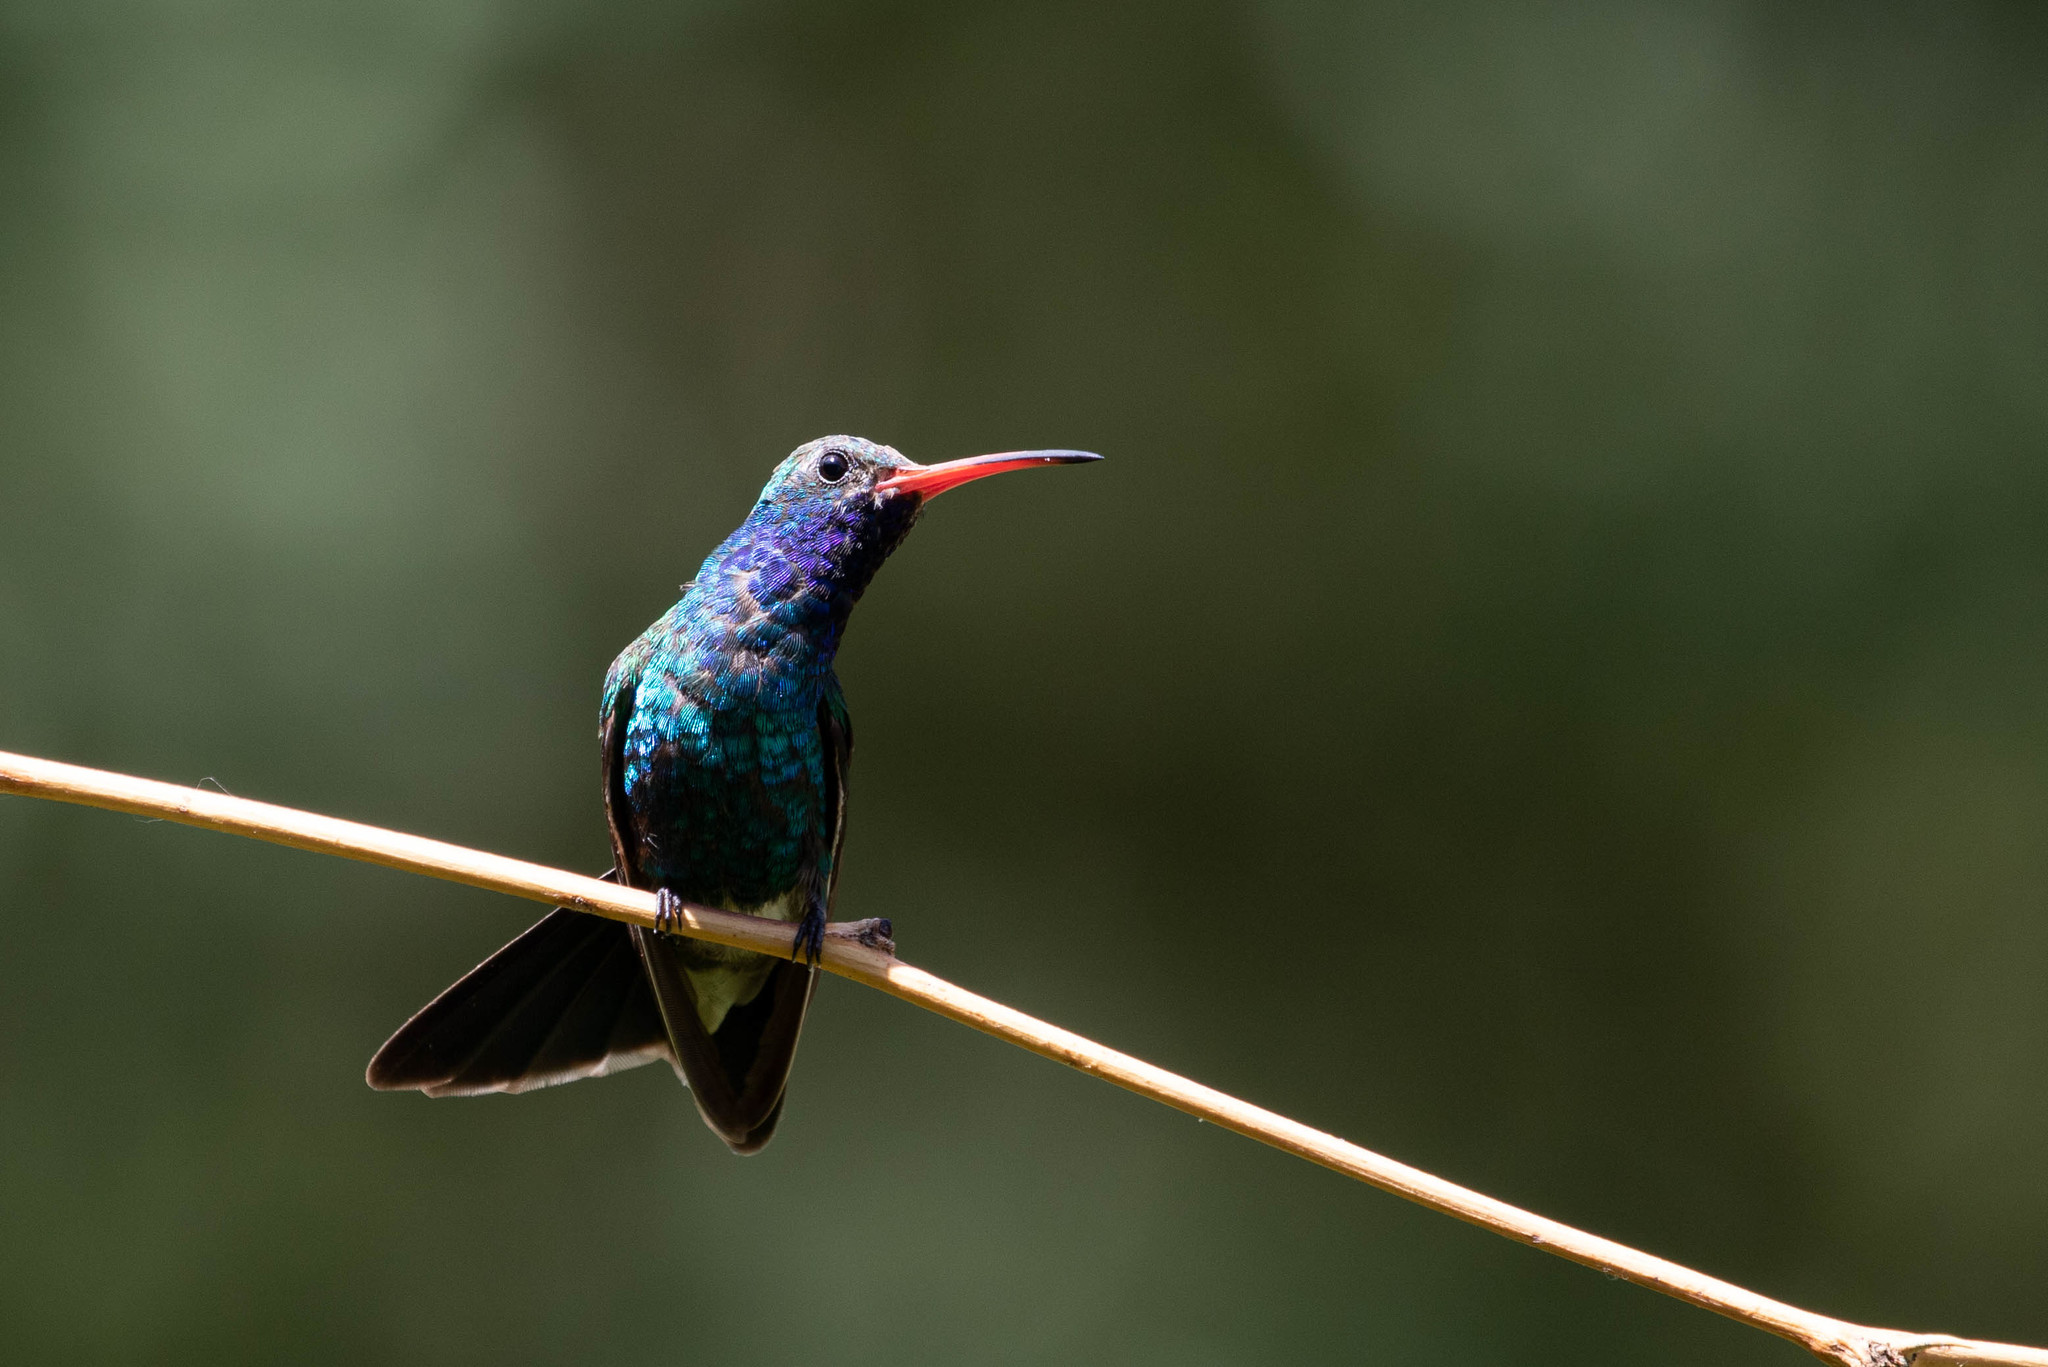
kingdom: Animalia
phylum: Chordata
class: Aves
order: Apodiformes
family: Trochilidae
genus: Cynanthus
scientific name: Cynanthus latirostris
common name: Broad-billed hummingbird
